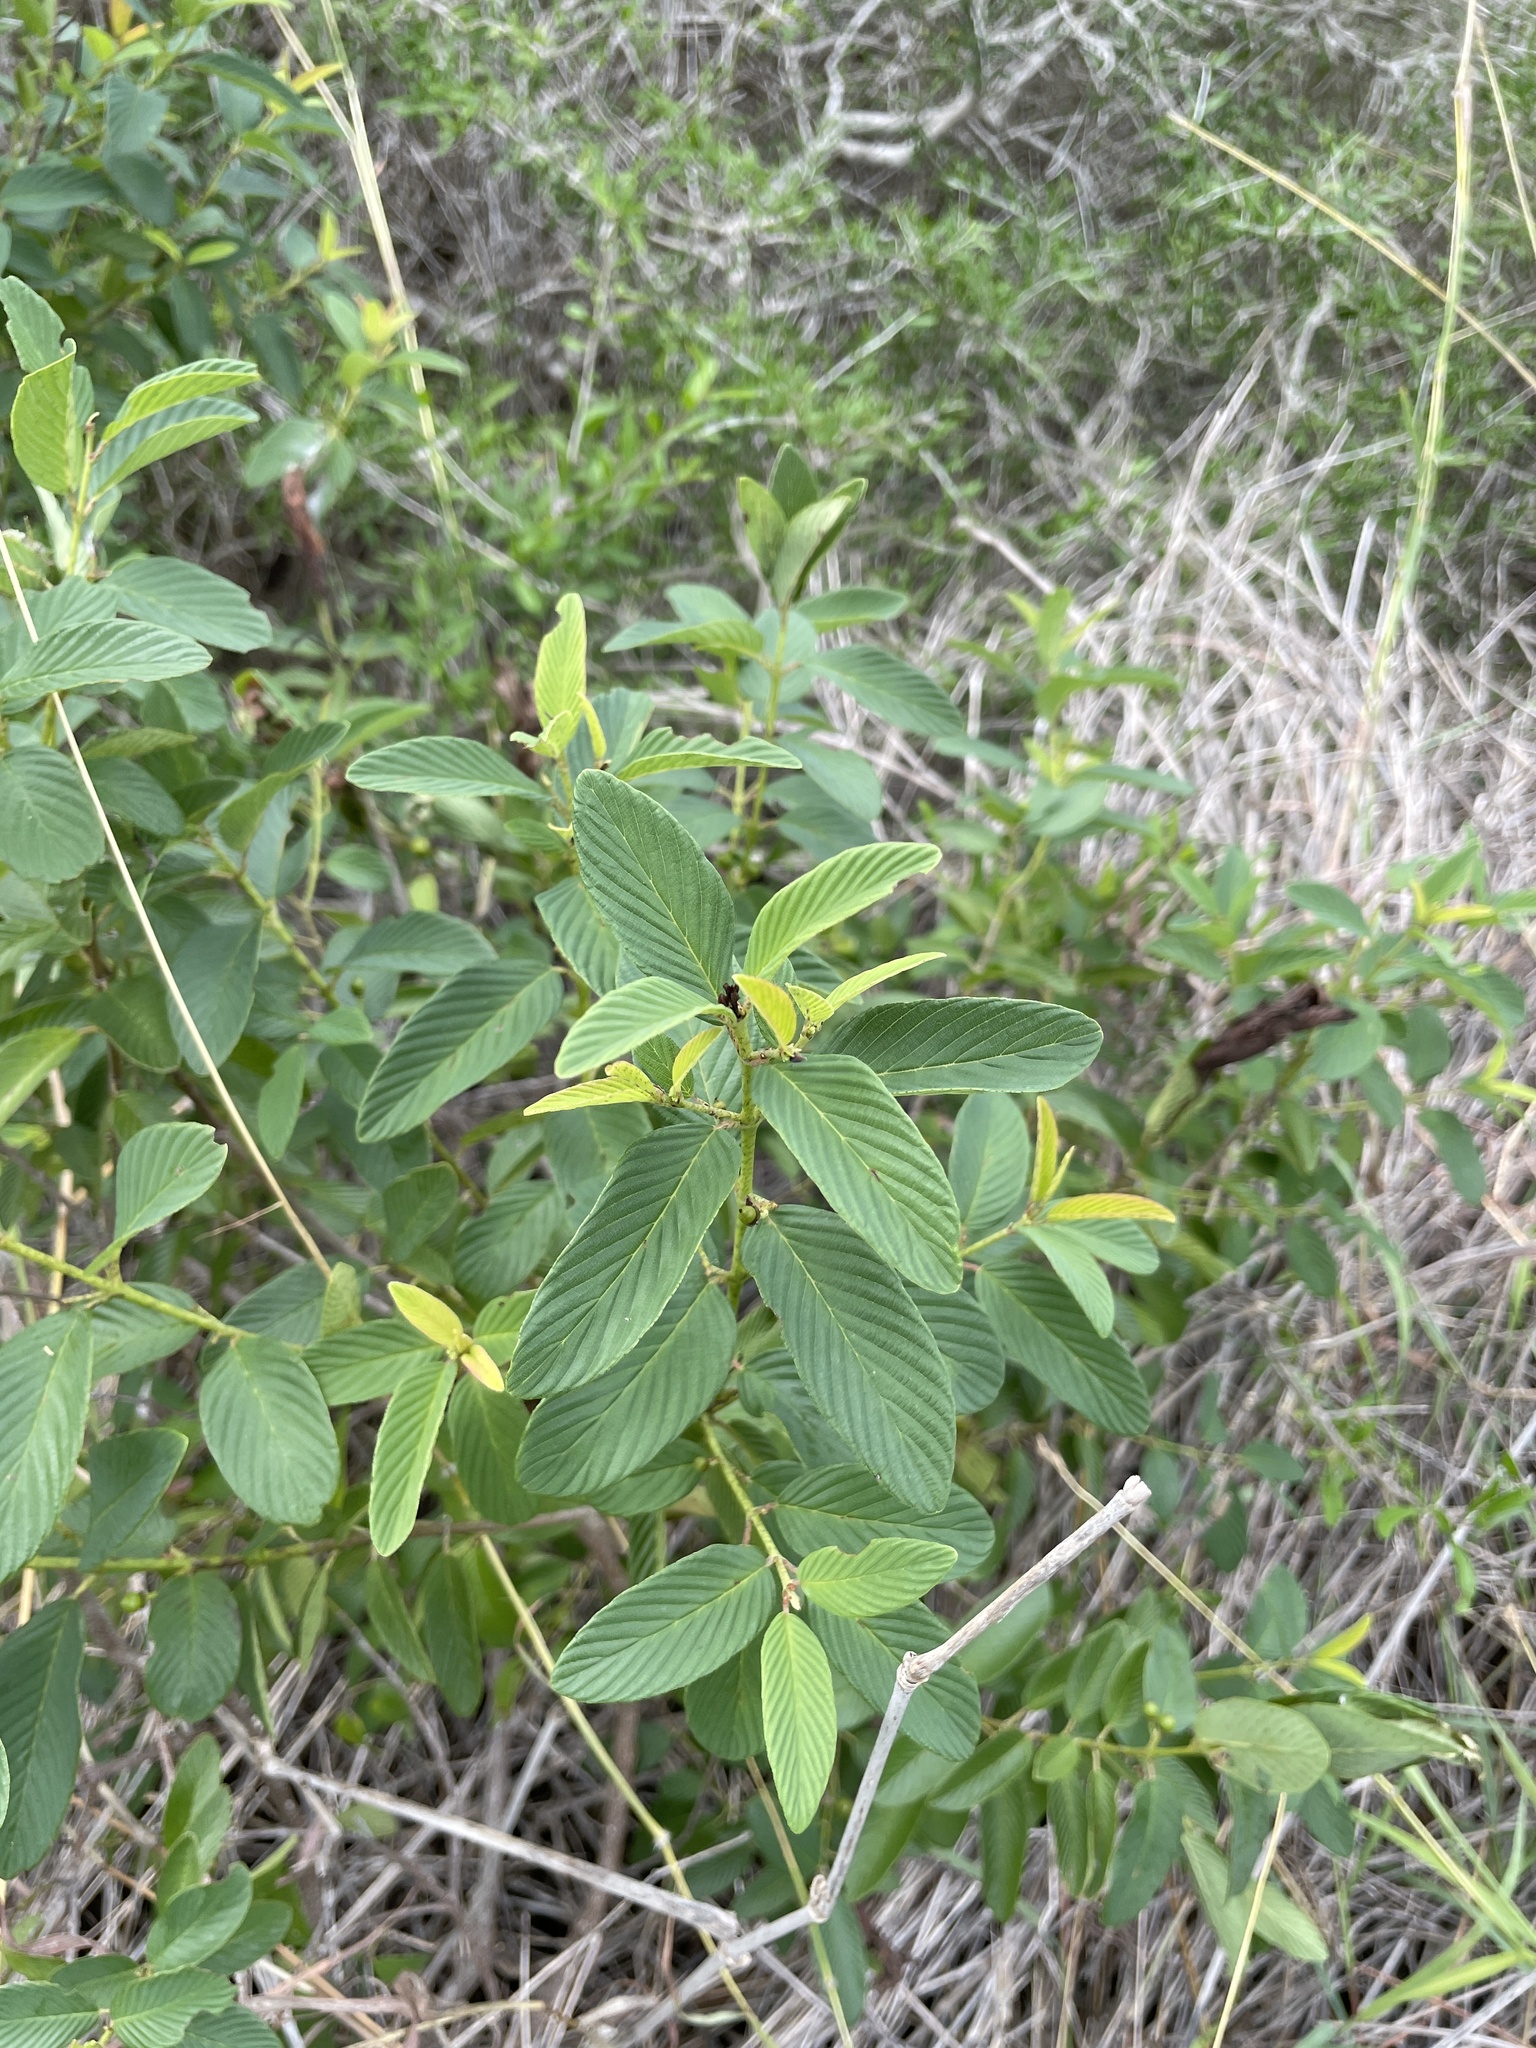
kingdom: Plantae
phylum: Tracheophyta
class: Magnoliopsida
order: Rosales
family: Rhamnaceae
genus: Karwinskia
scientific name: Karwinskia humboldtiana
